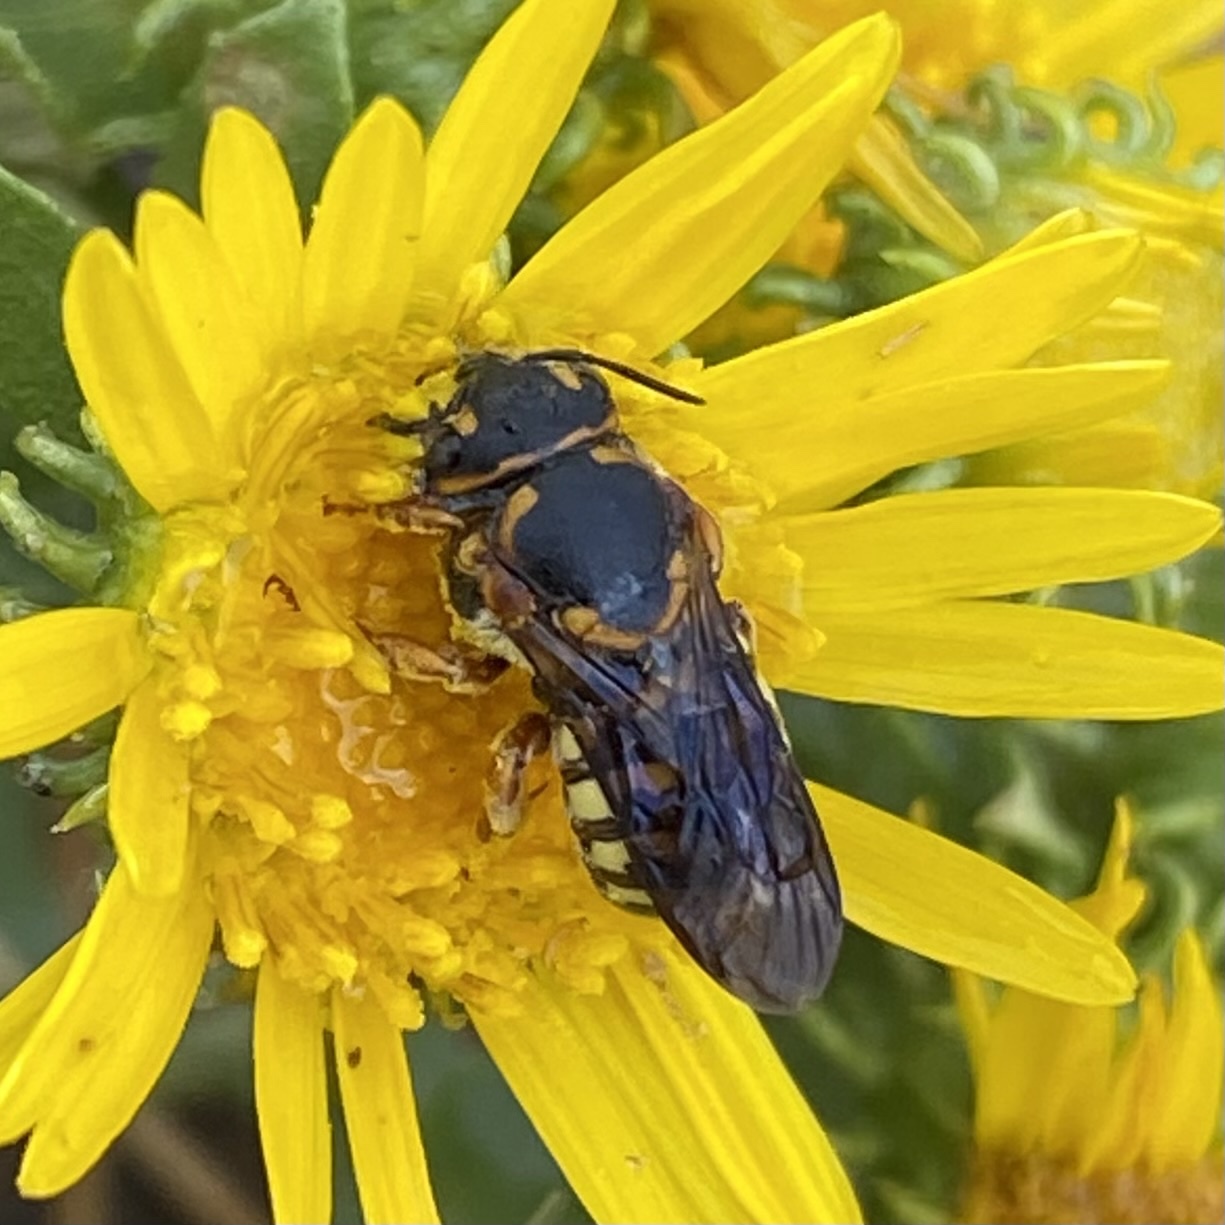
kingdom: Animalia
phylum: Arthropoda
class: Insecta
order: Hymenoptera
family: Megachilidae
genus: Dianthidium
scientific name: Dianthidium curvatum
